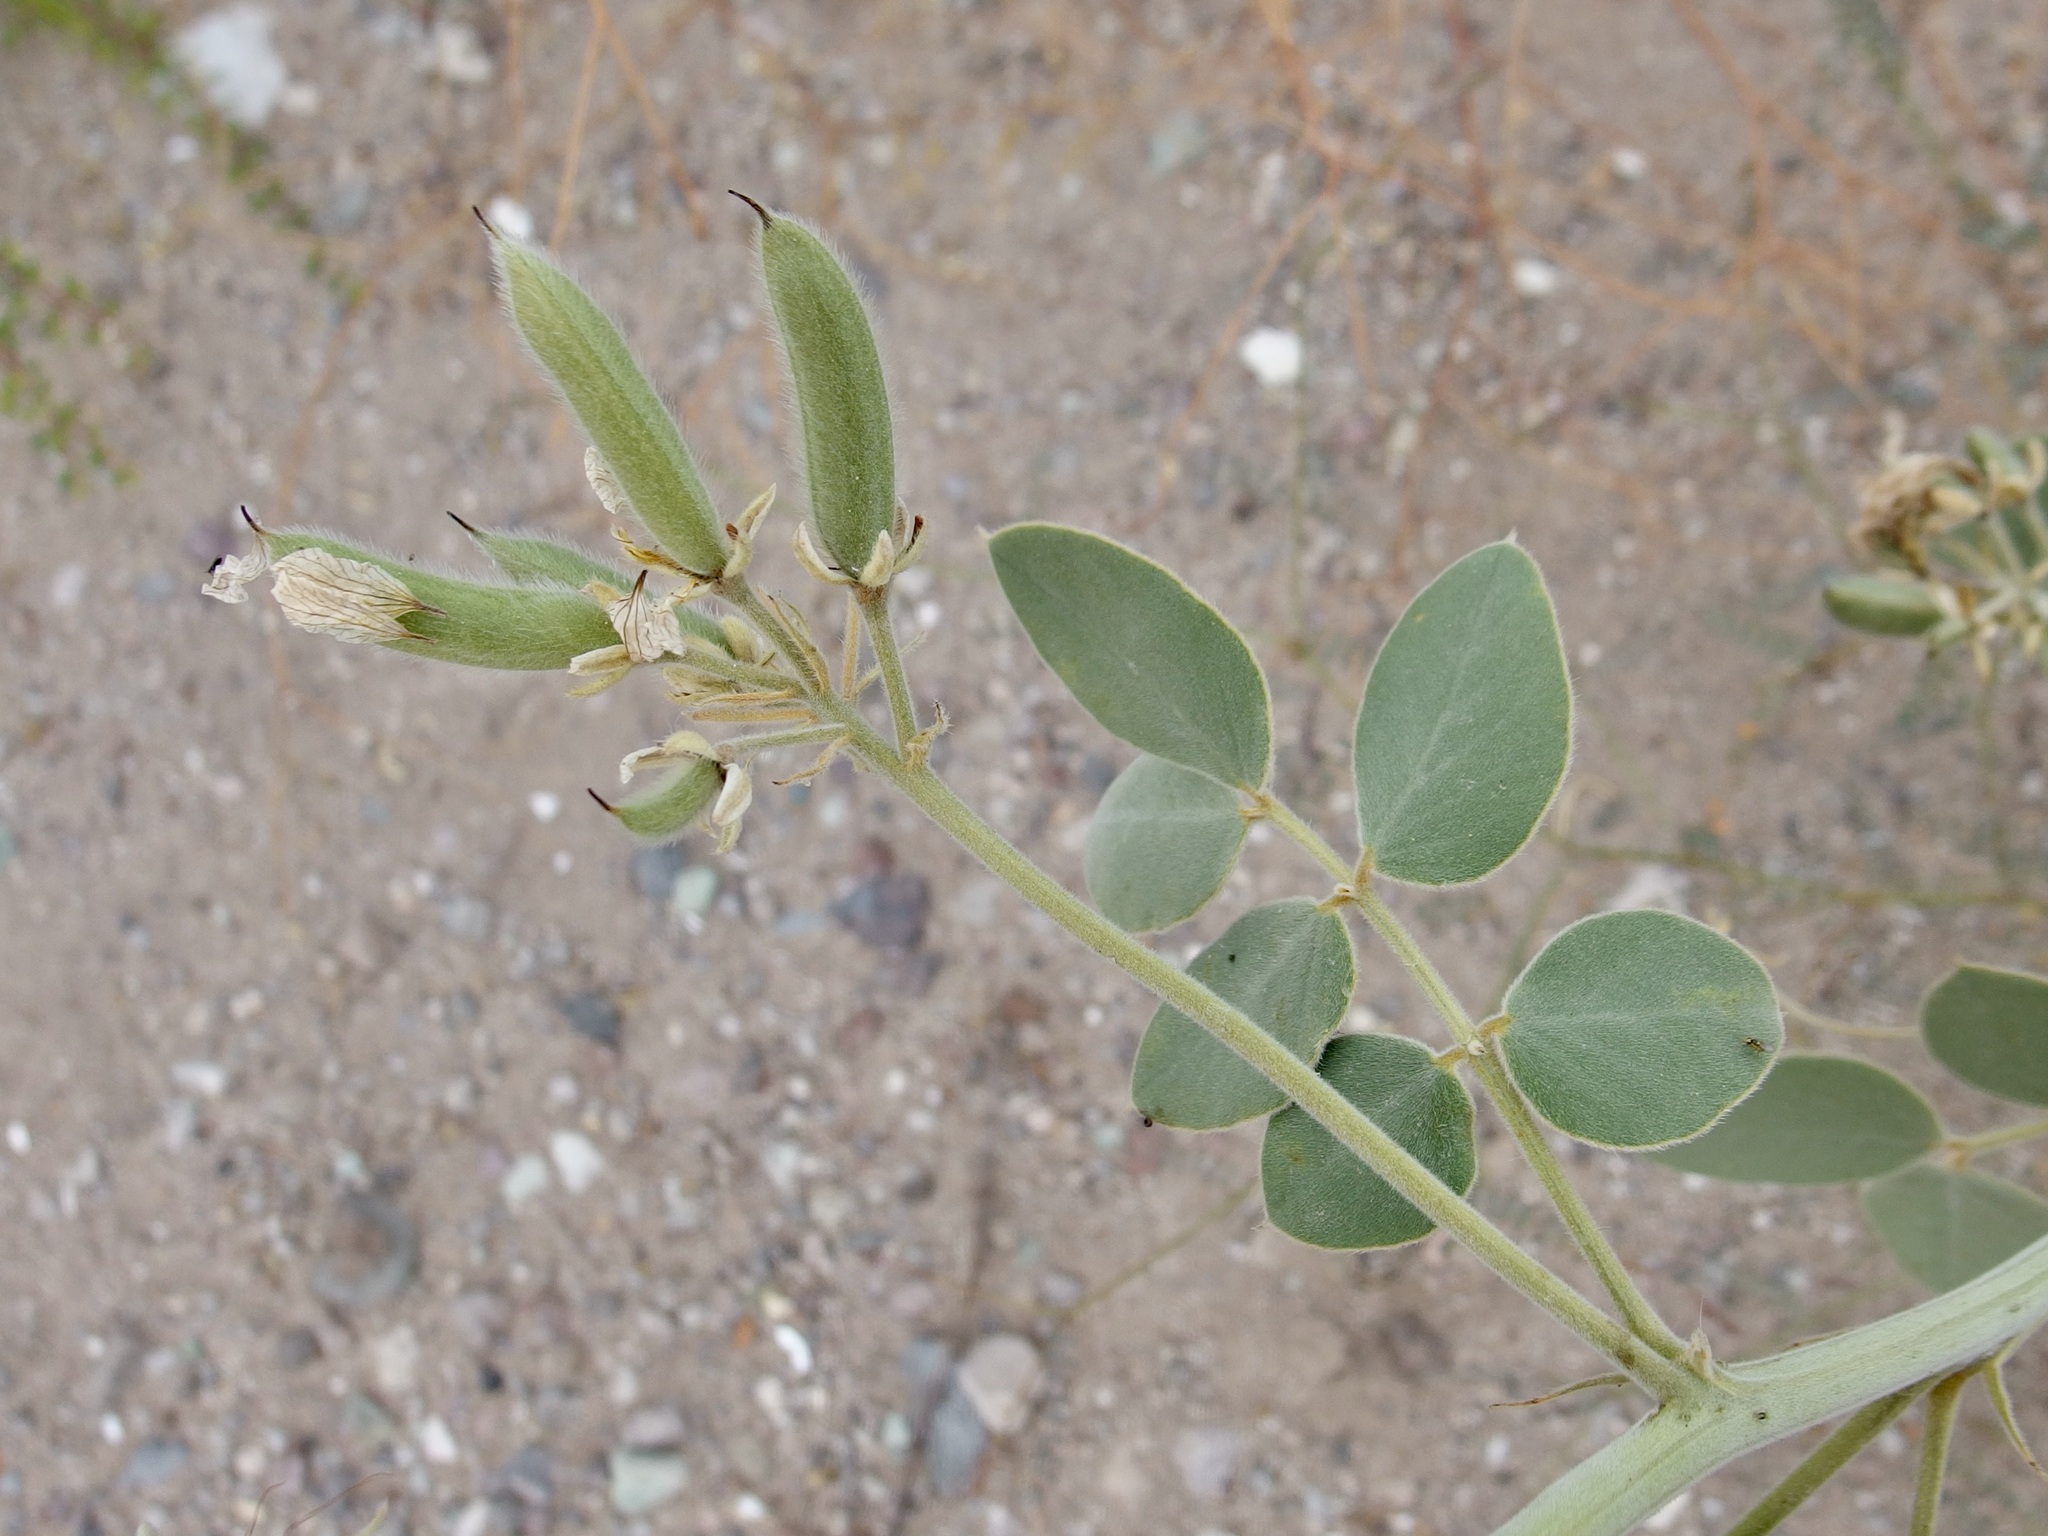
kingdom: Plantae
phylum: Tracheophyta
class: Magnoliopsida
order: Fabales
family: Fabaceae
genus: Senna
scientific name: Senna confinis
